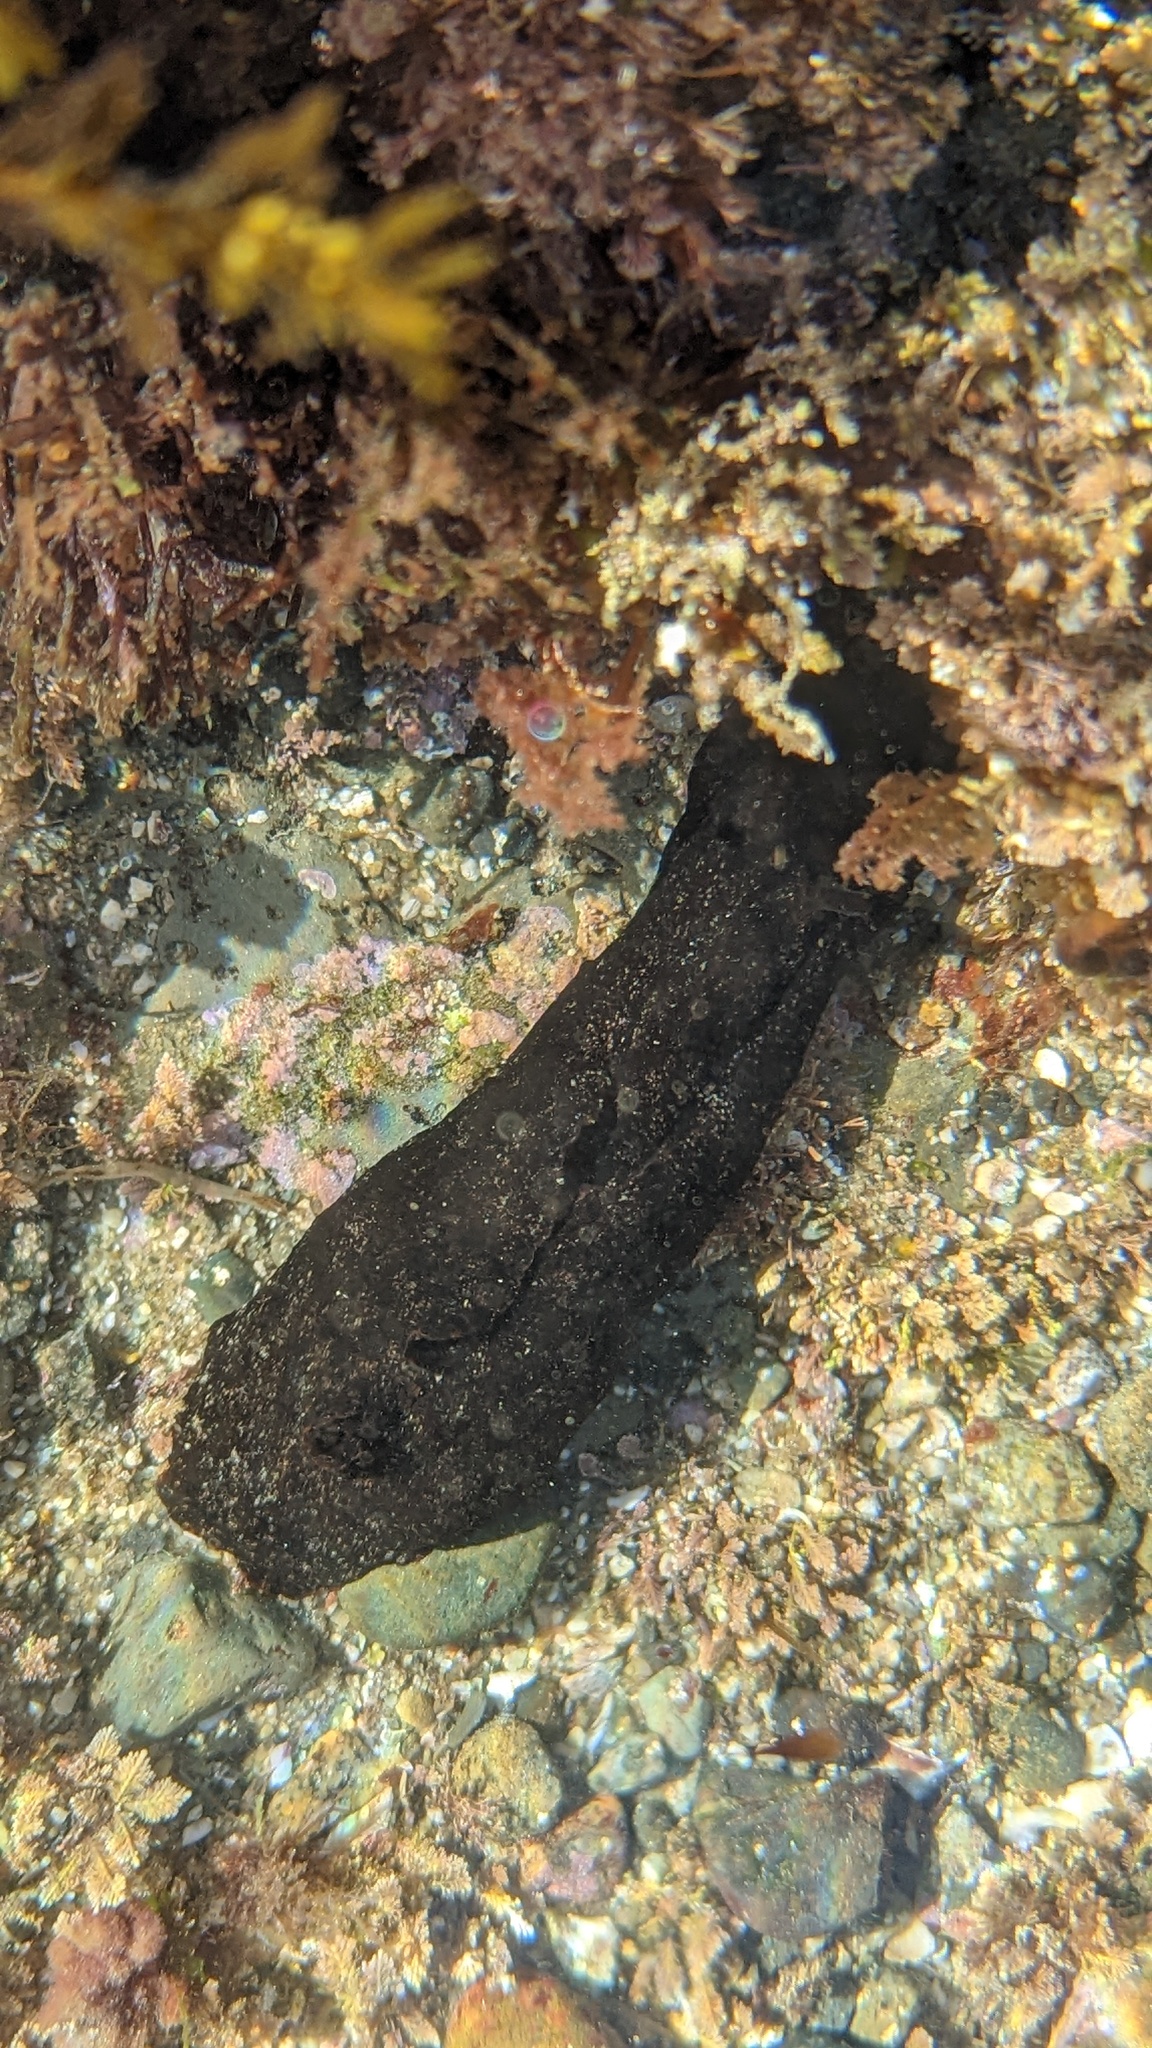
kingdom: Animalia
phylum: Mollusca
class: Gastropoda
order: Aplysiida
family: Aplysiidae
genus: Aplysia
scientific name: Aplysia vaccaria
